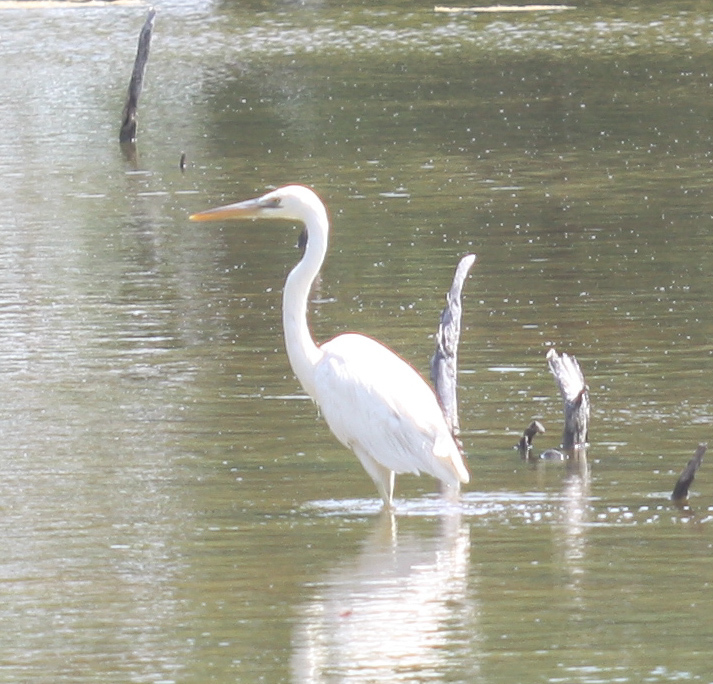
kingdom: Animalia
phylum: Chordata
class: Aves
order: Pelecaniformes
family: Ardeidae
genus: Ardea
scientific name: Ardea herodias
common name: Great blue heron
